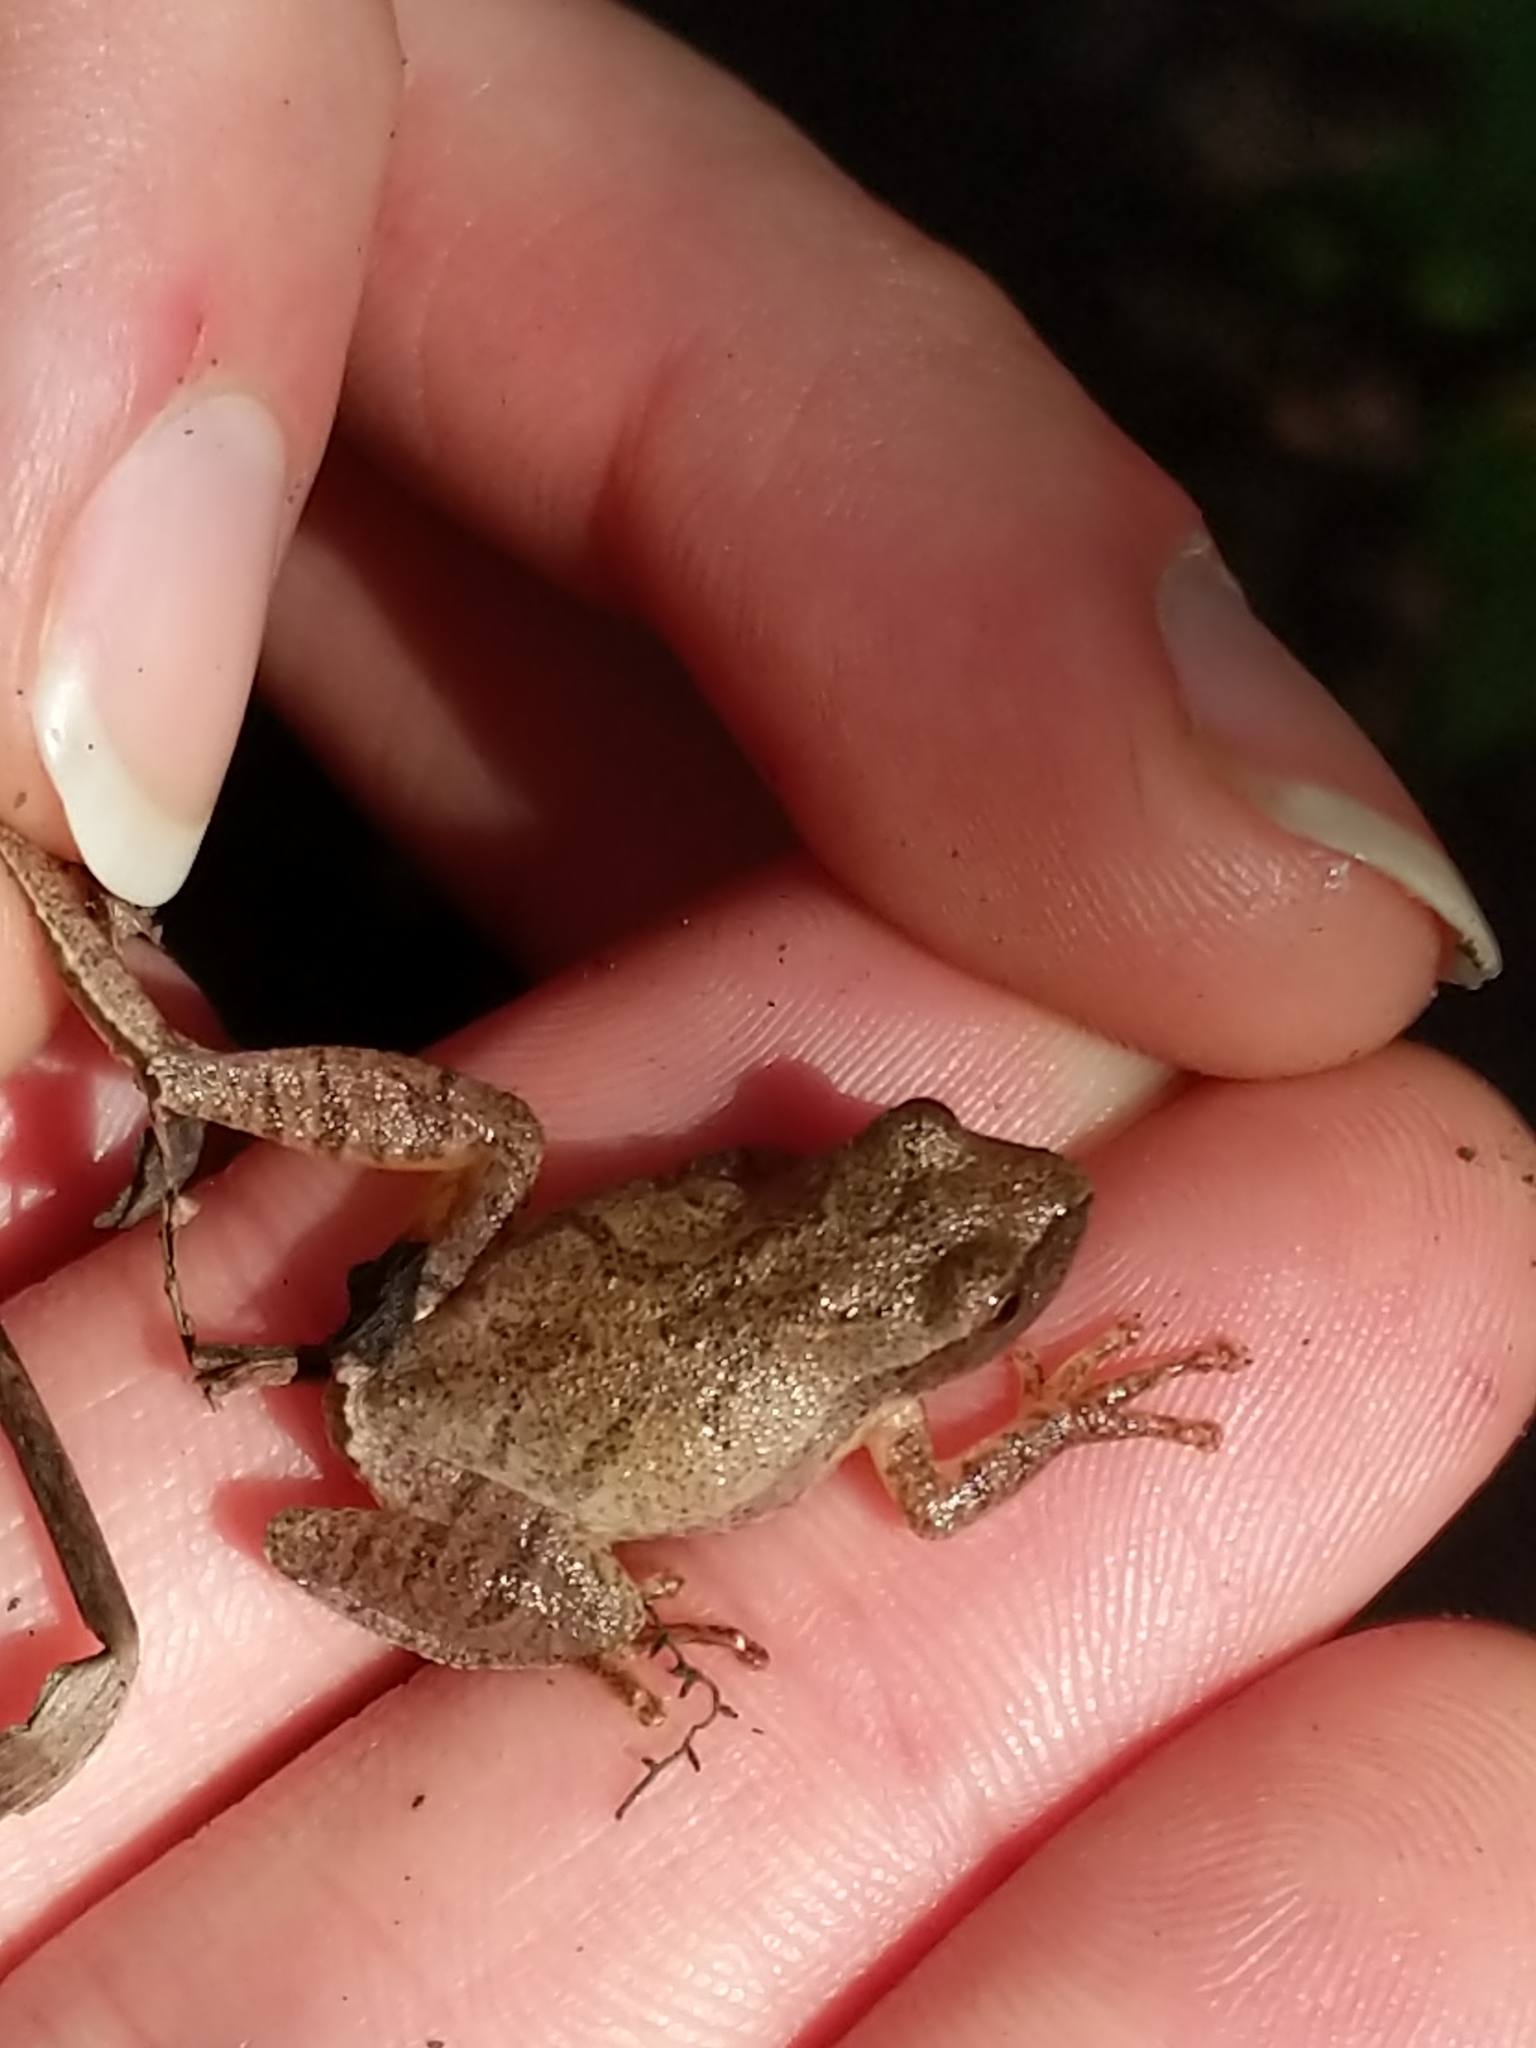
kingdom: Animalia
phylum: Chordata
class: Amphibia
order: Anura
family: Hylidae
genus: Pseudacris
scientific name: Pseudacris crucifer
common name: Spring peeper
